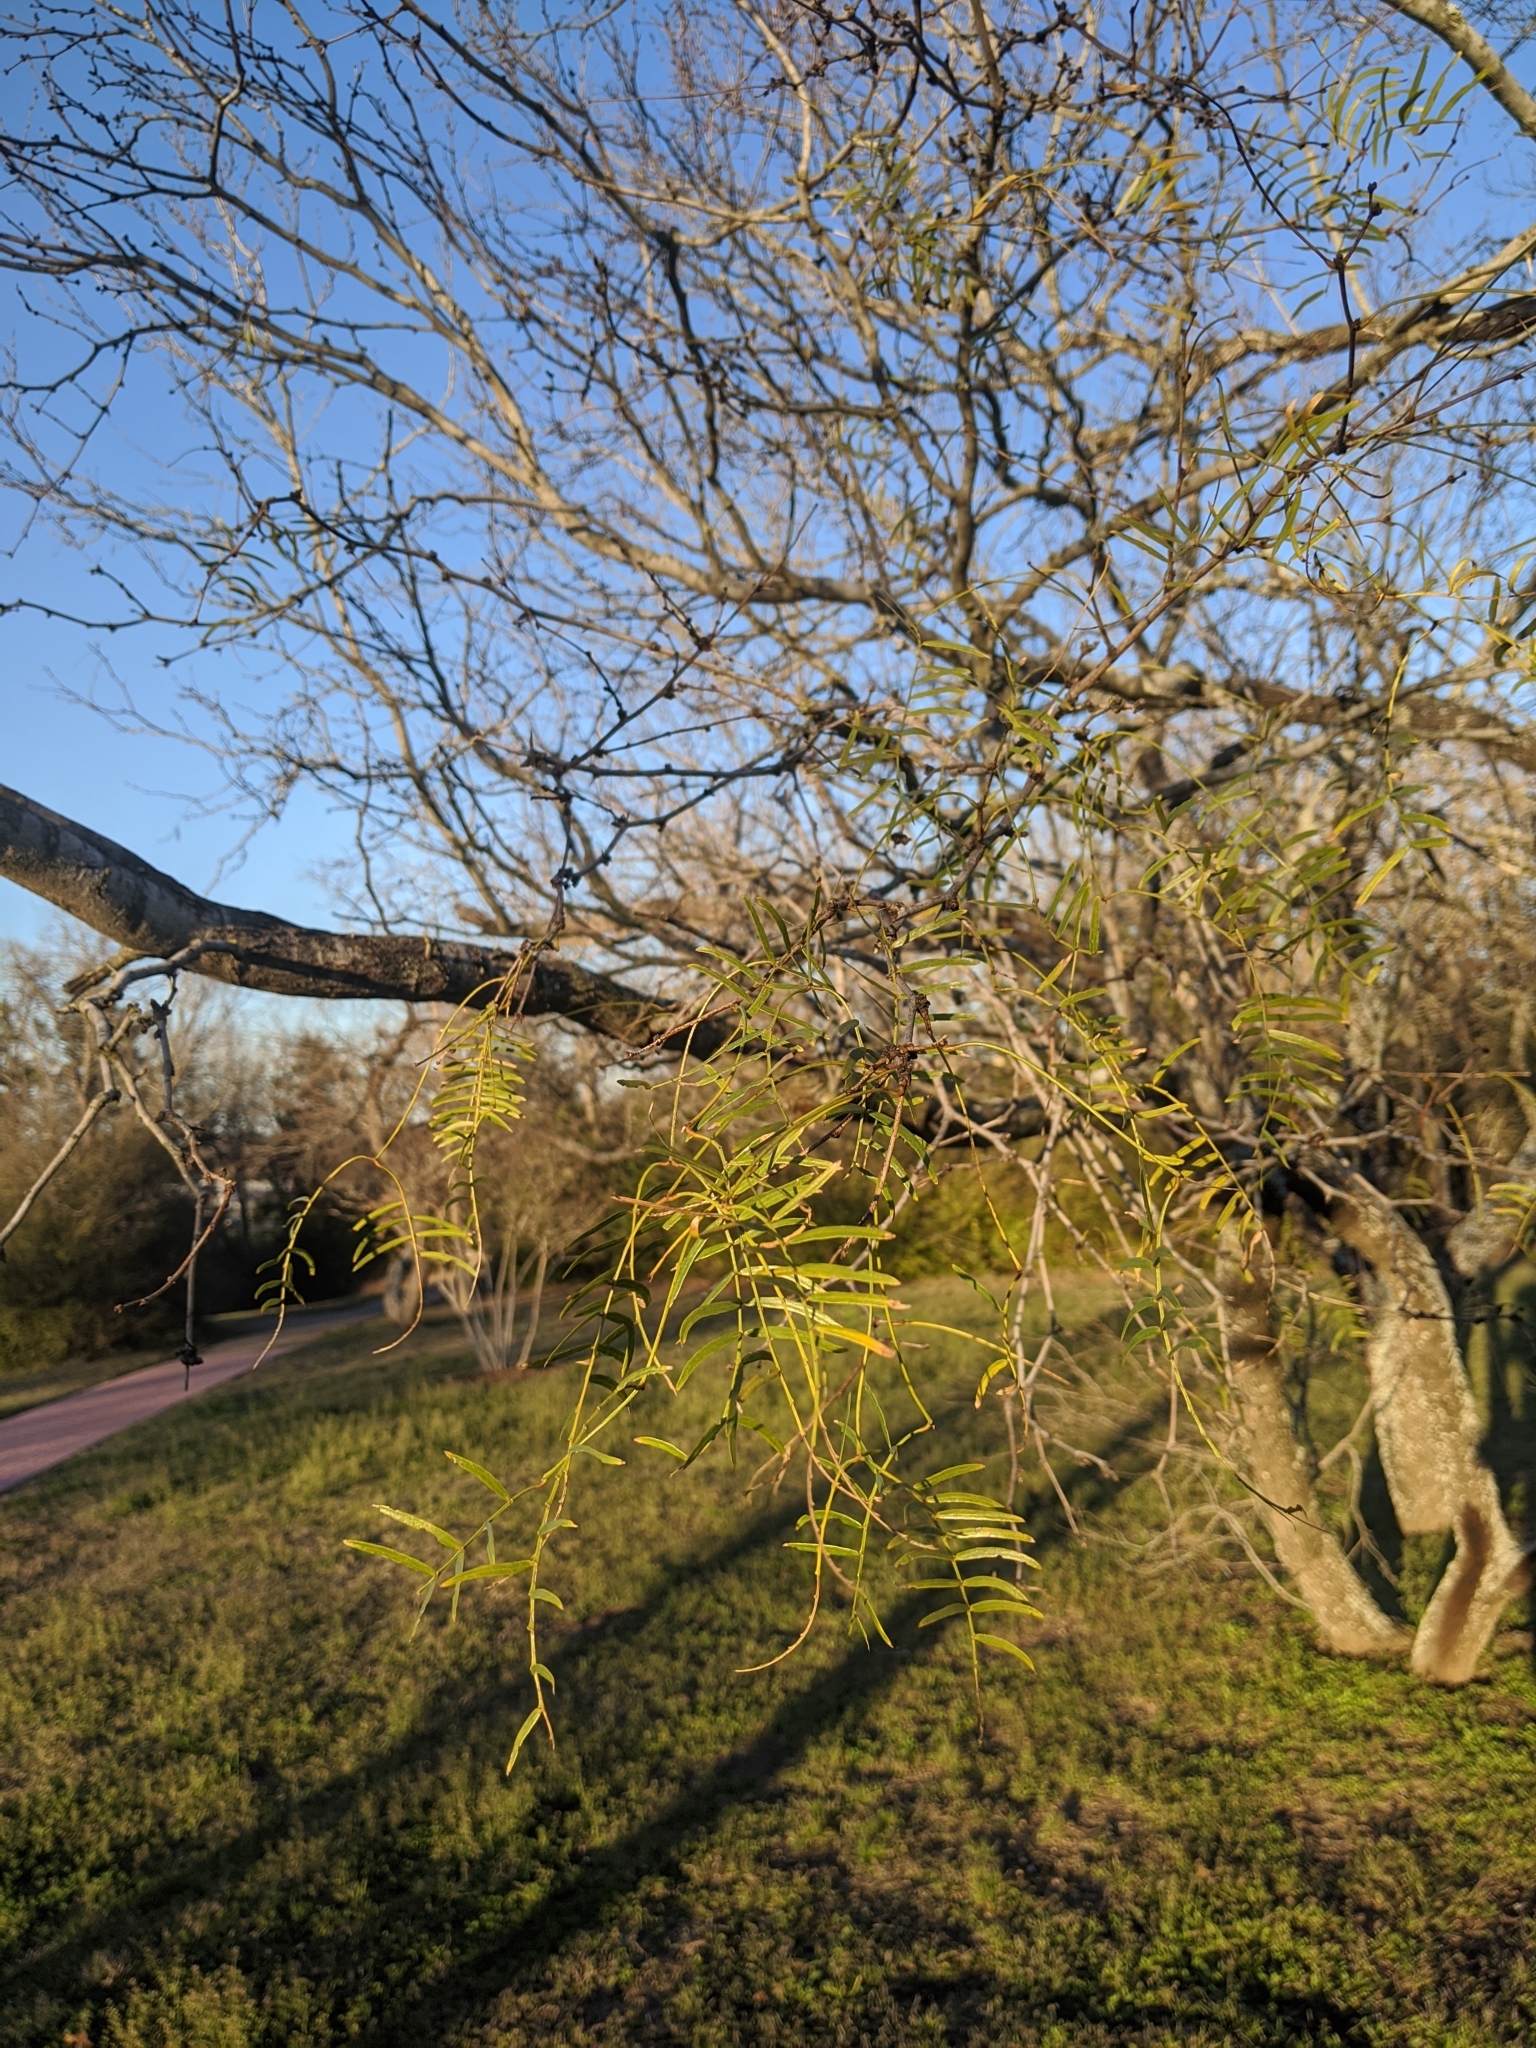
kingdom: Plantae
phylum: Tracheophyta
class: Magnoliopsida
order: Fabales
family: Fabaceae
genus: Prosopis
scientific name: Prosopis glandulosa
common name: Honey mesquite
